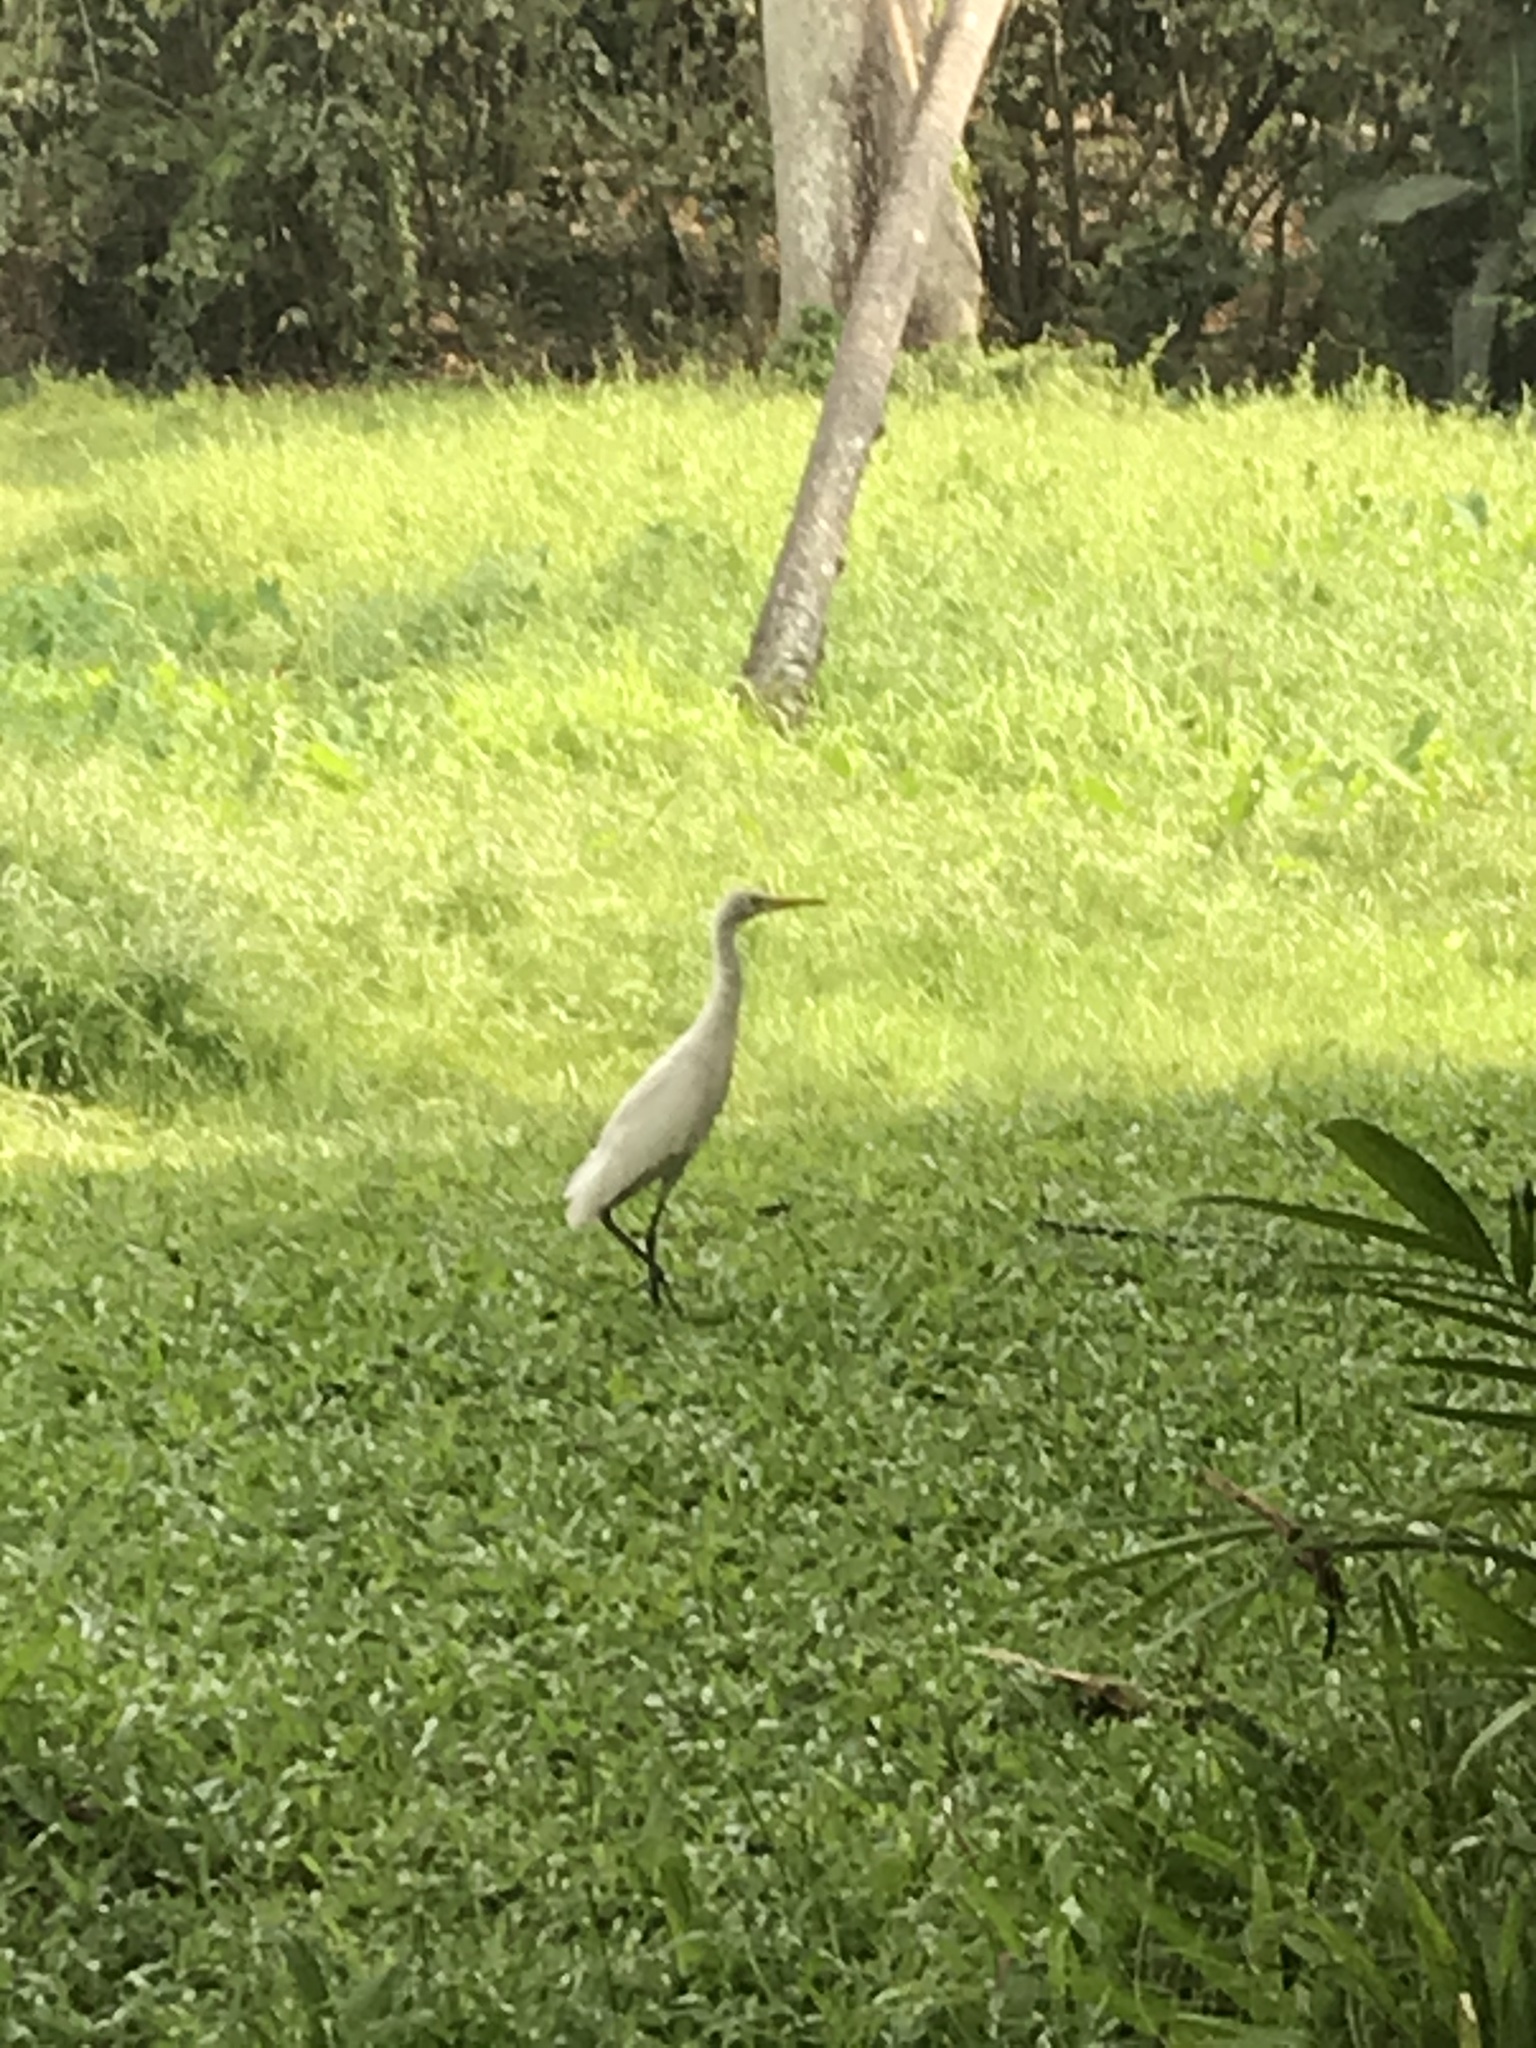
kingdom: Animalia
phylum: Chordata
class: Aves
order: Pelecaniformes
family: Ardeidae
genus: Bubulcus
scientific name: Bubulcus coromandus
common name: Eastern cattle egret
